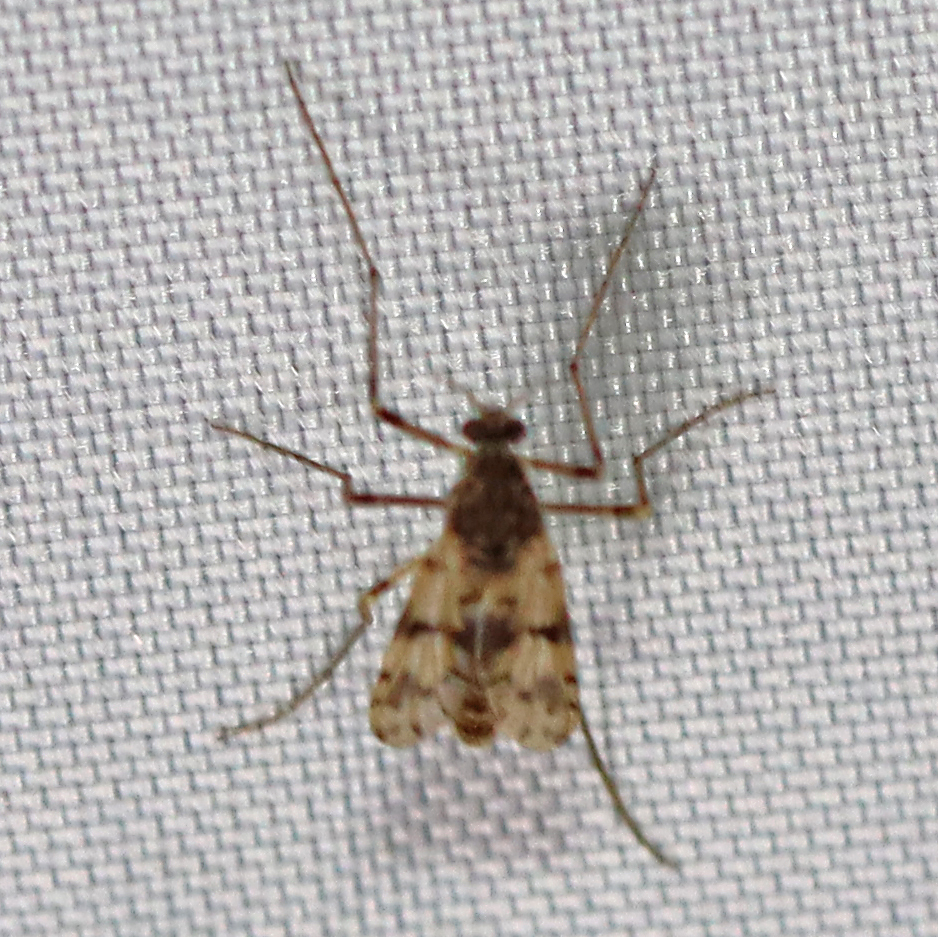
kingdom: Animalia
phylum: Arthropoda
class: Insecta
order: Diptera
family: Chironomidae
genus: Alotanypus
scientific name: Alotanypus venusta
